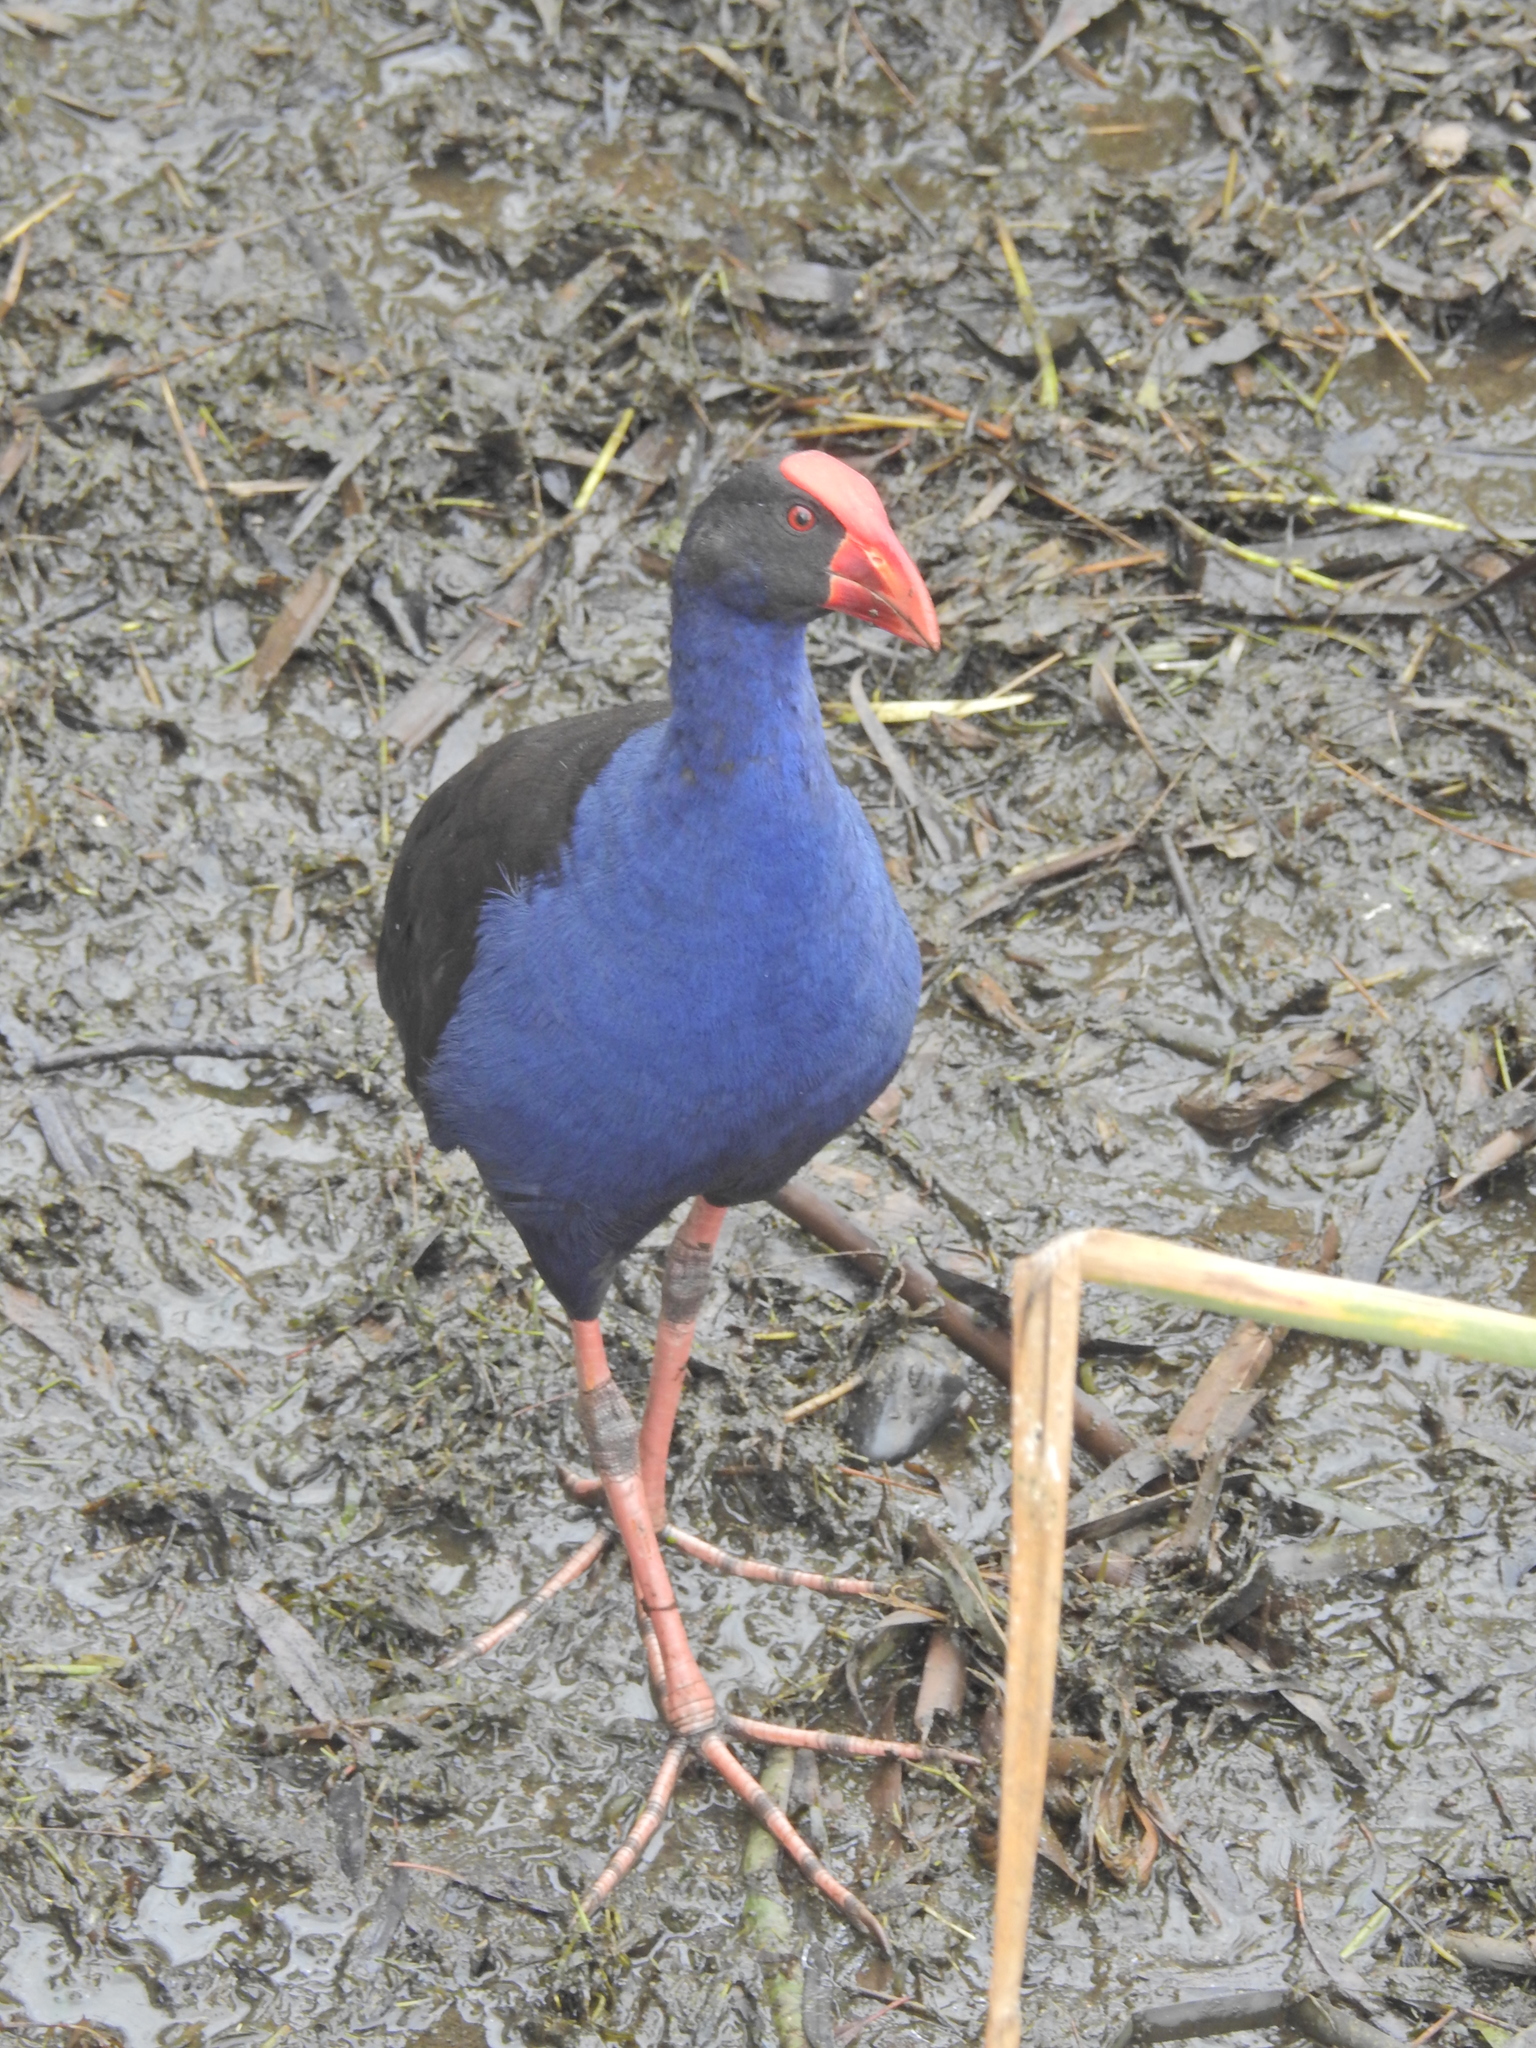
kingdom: Animalia
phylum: Chordata
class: Aves
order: Gruiformes
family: Rallidae
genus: Porphyrio
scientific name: Porphyrio melanotus
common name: Australasian swamphen
